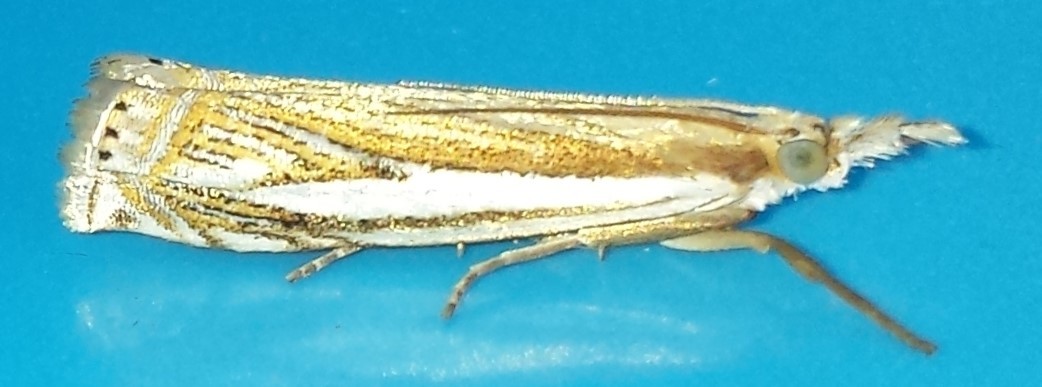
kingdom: Animalia
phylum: Arthropoda
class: Insecta
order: Lepidoptera
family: Crambidae
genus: Crambus
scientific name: Crambus saltuellus
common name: Pasture grass-veneer
